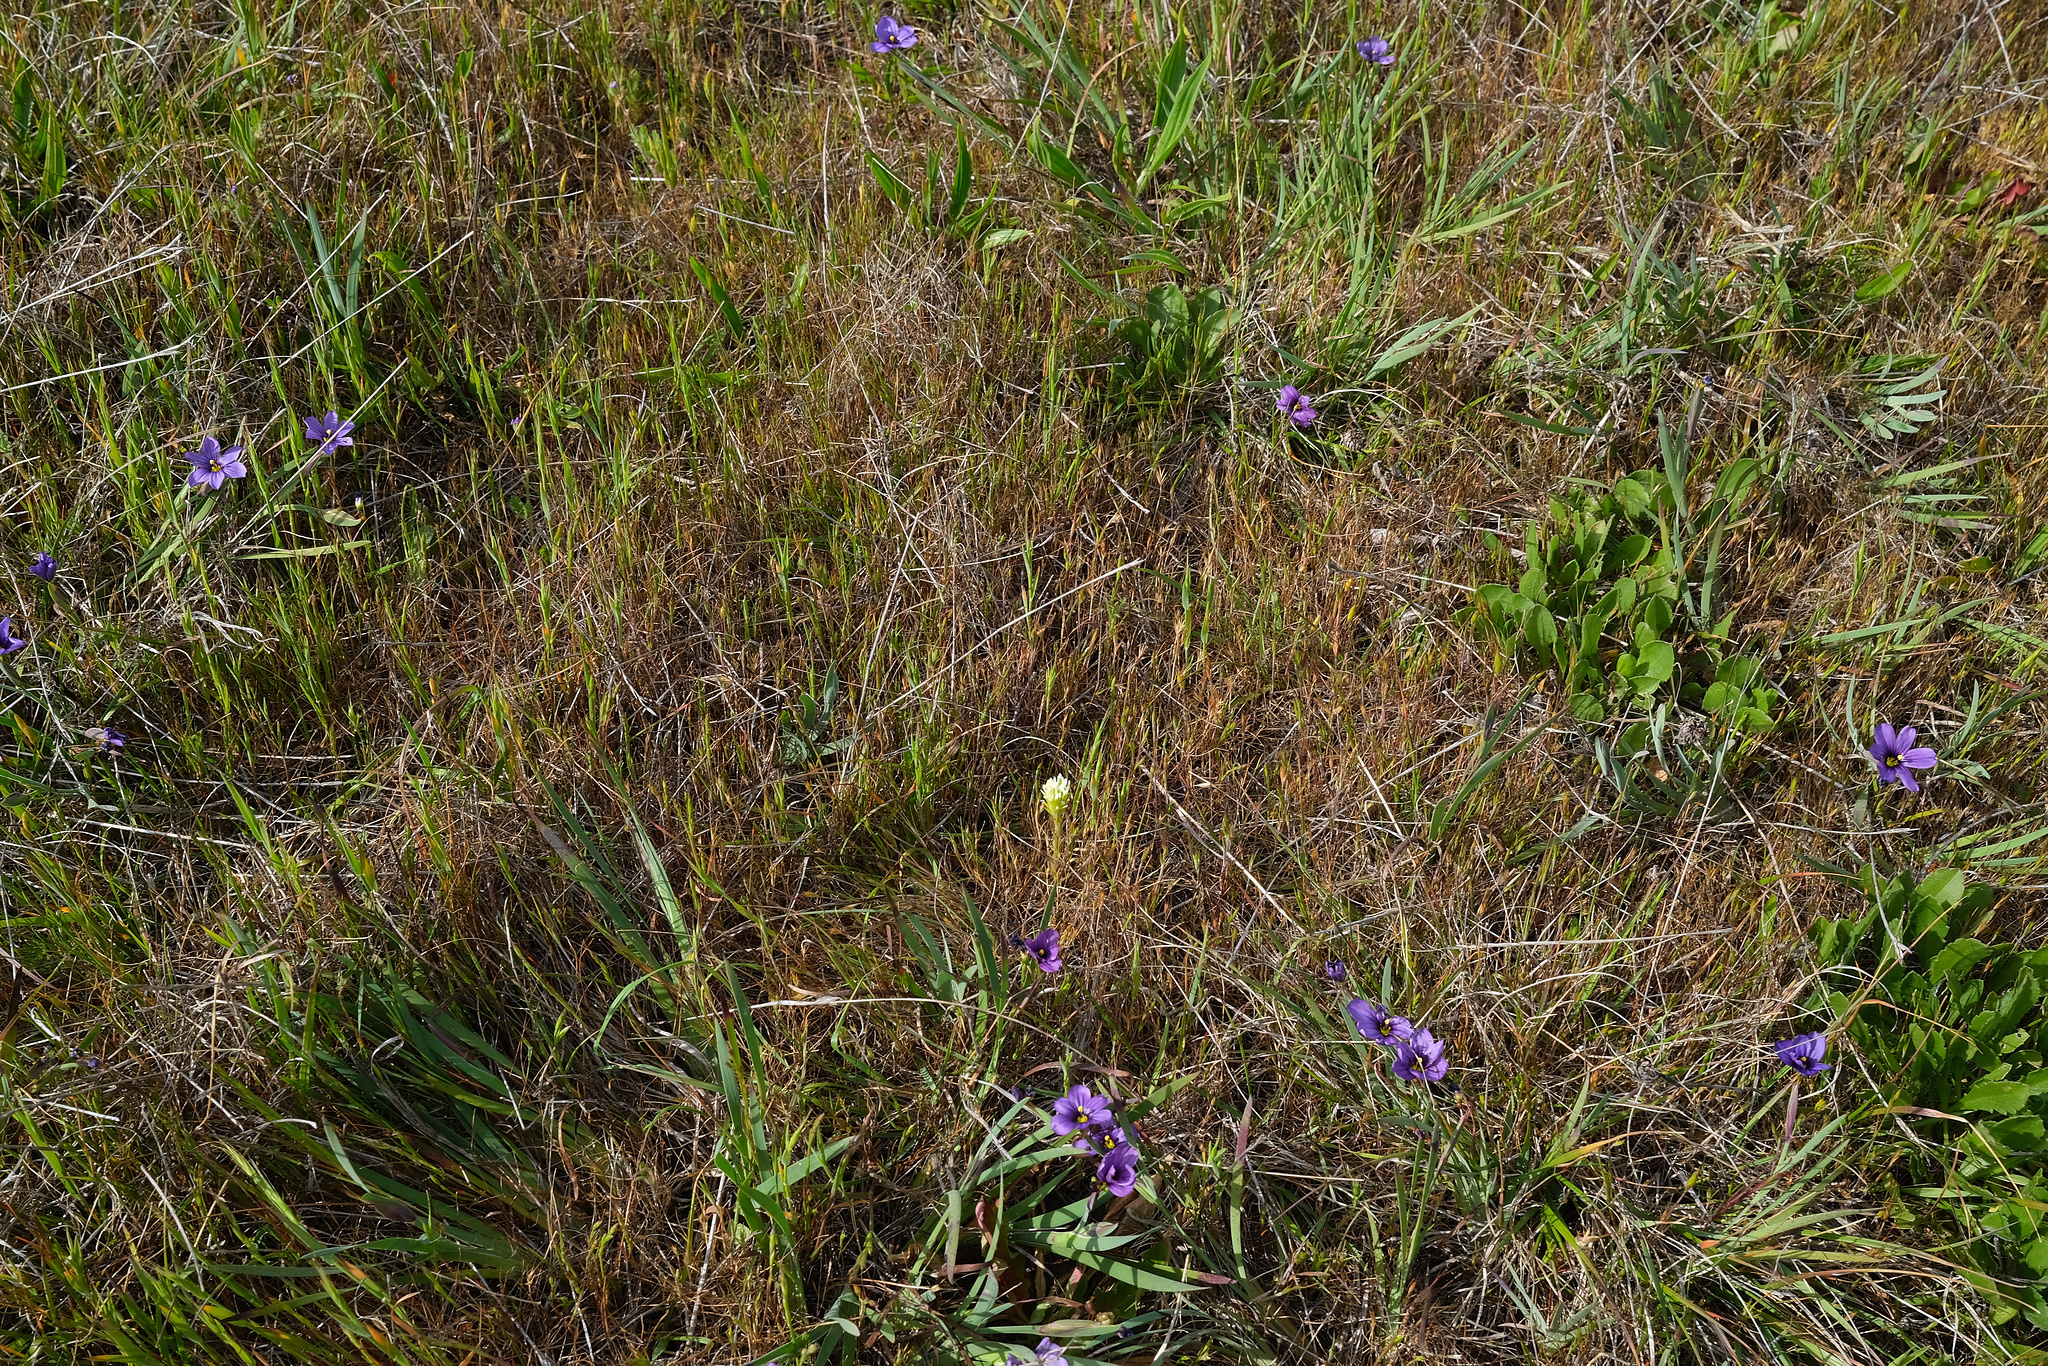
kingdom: Plantae
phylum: Tracheophyta
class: Magnoliopsida
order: Lamiales
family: Orobanchaceae
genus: Castilleja
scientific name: Castilleja densiflora
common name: Dense-flower indian paintbrush
